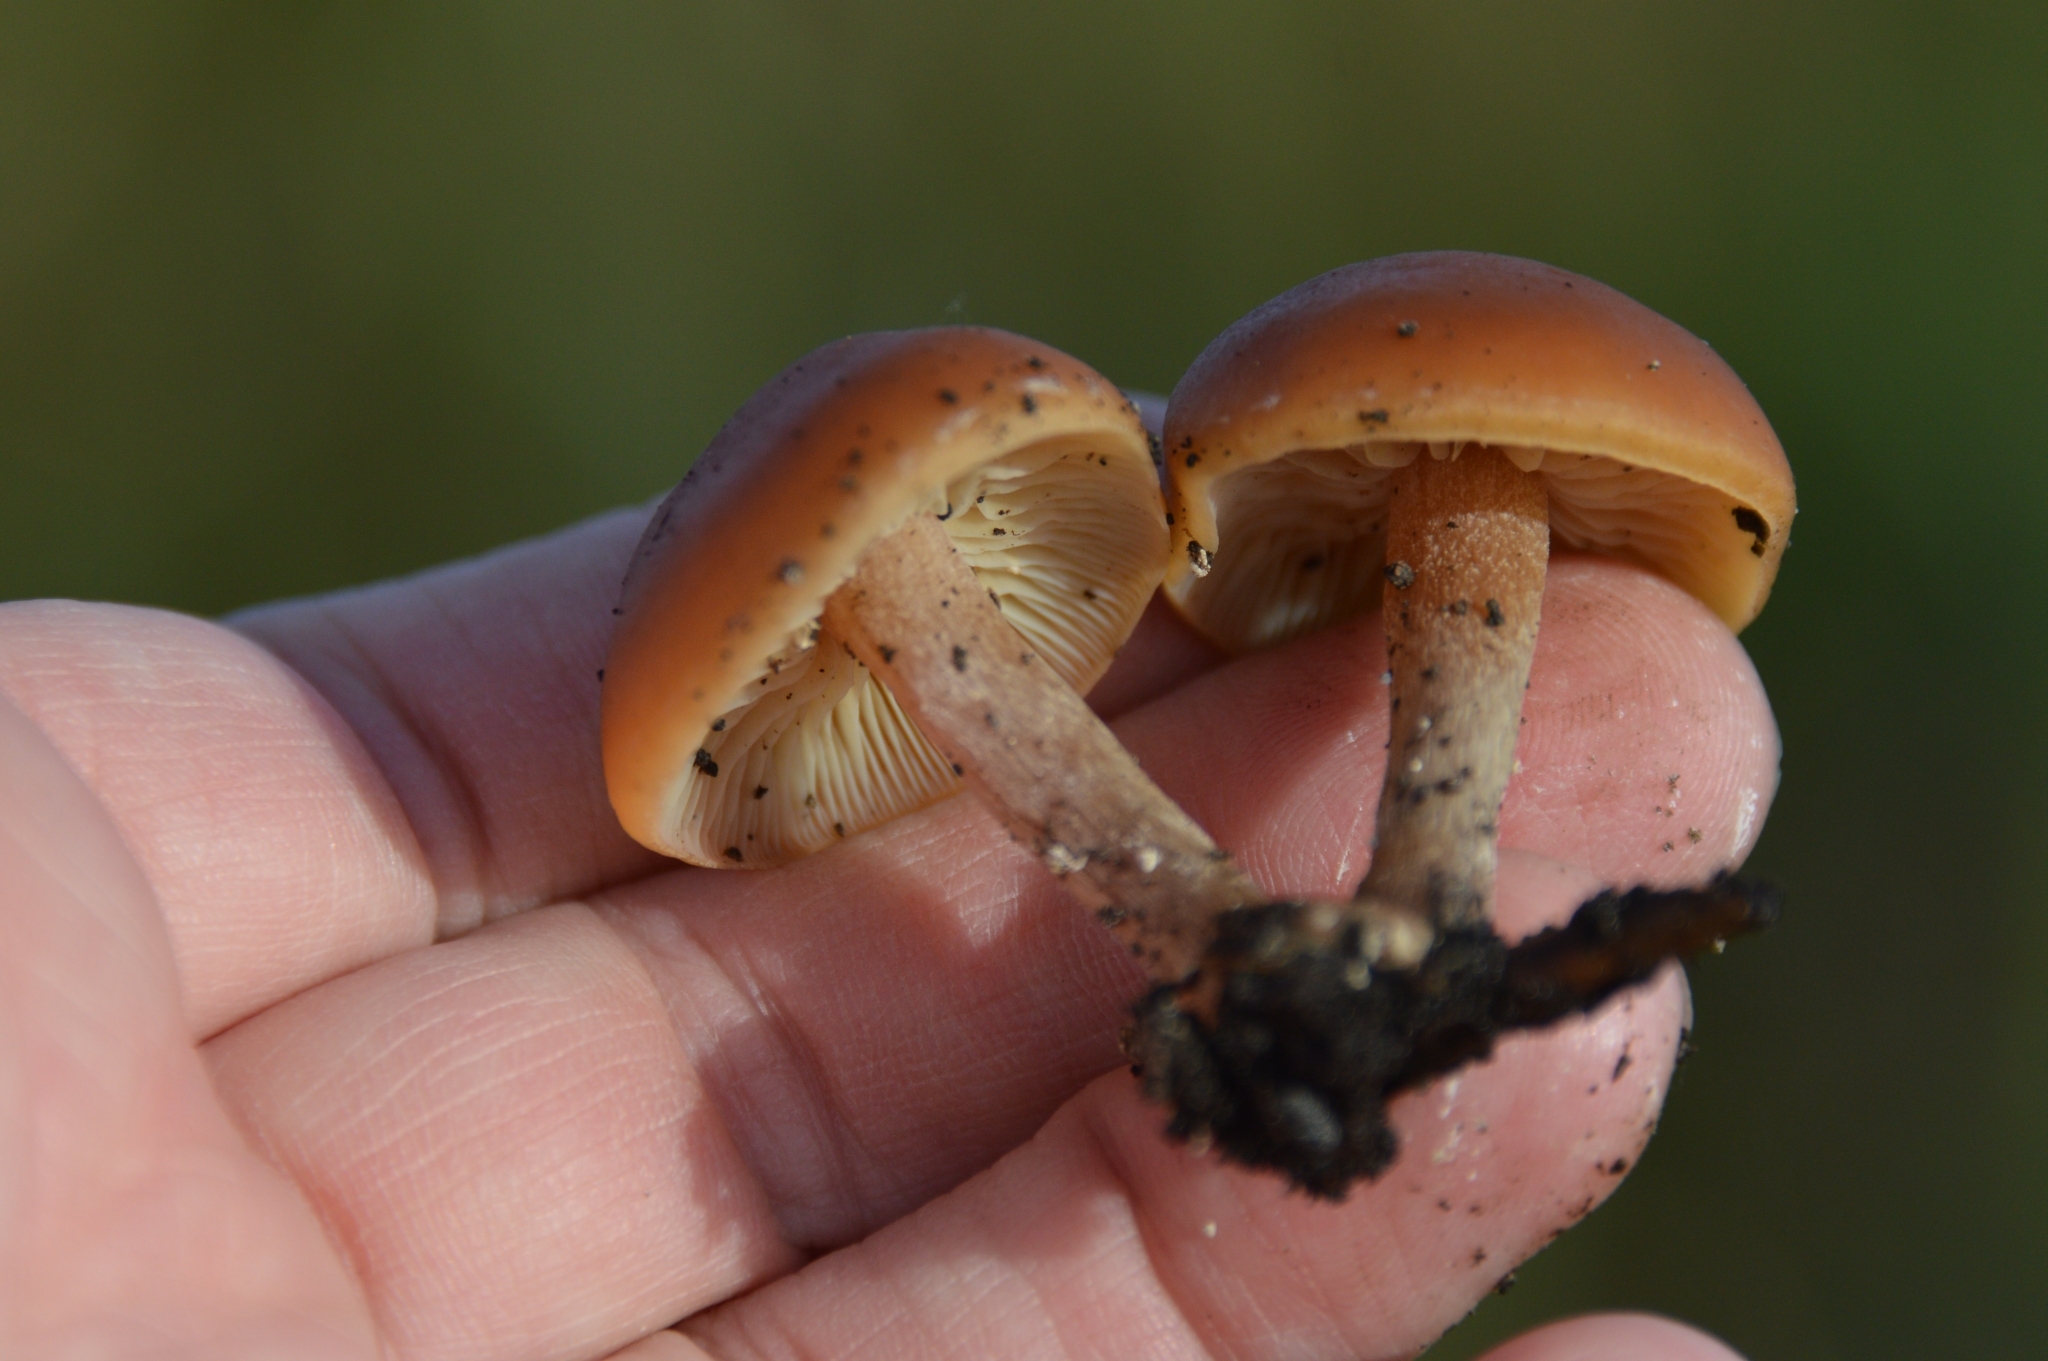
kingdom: Fungi
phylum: Basidiomycota
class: Agaricomycetes
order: Agaricales
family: Tubariaceae
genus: Tubaria
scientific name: Tubaria furfuracea
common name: Scurfy twiglet
